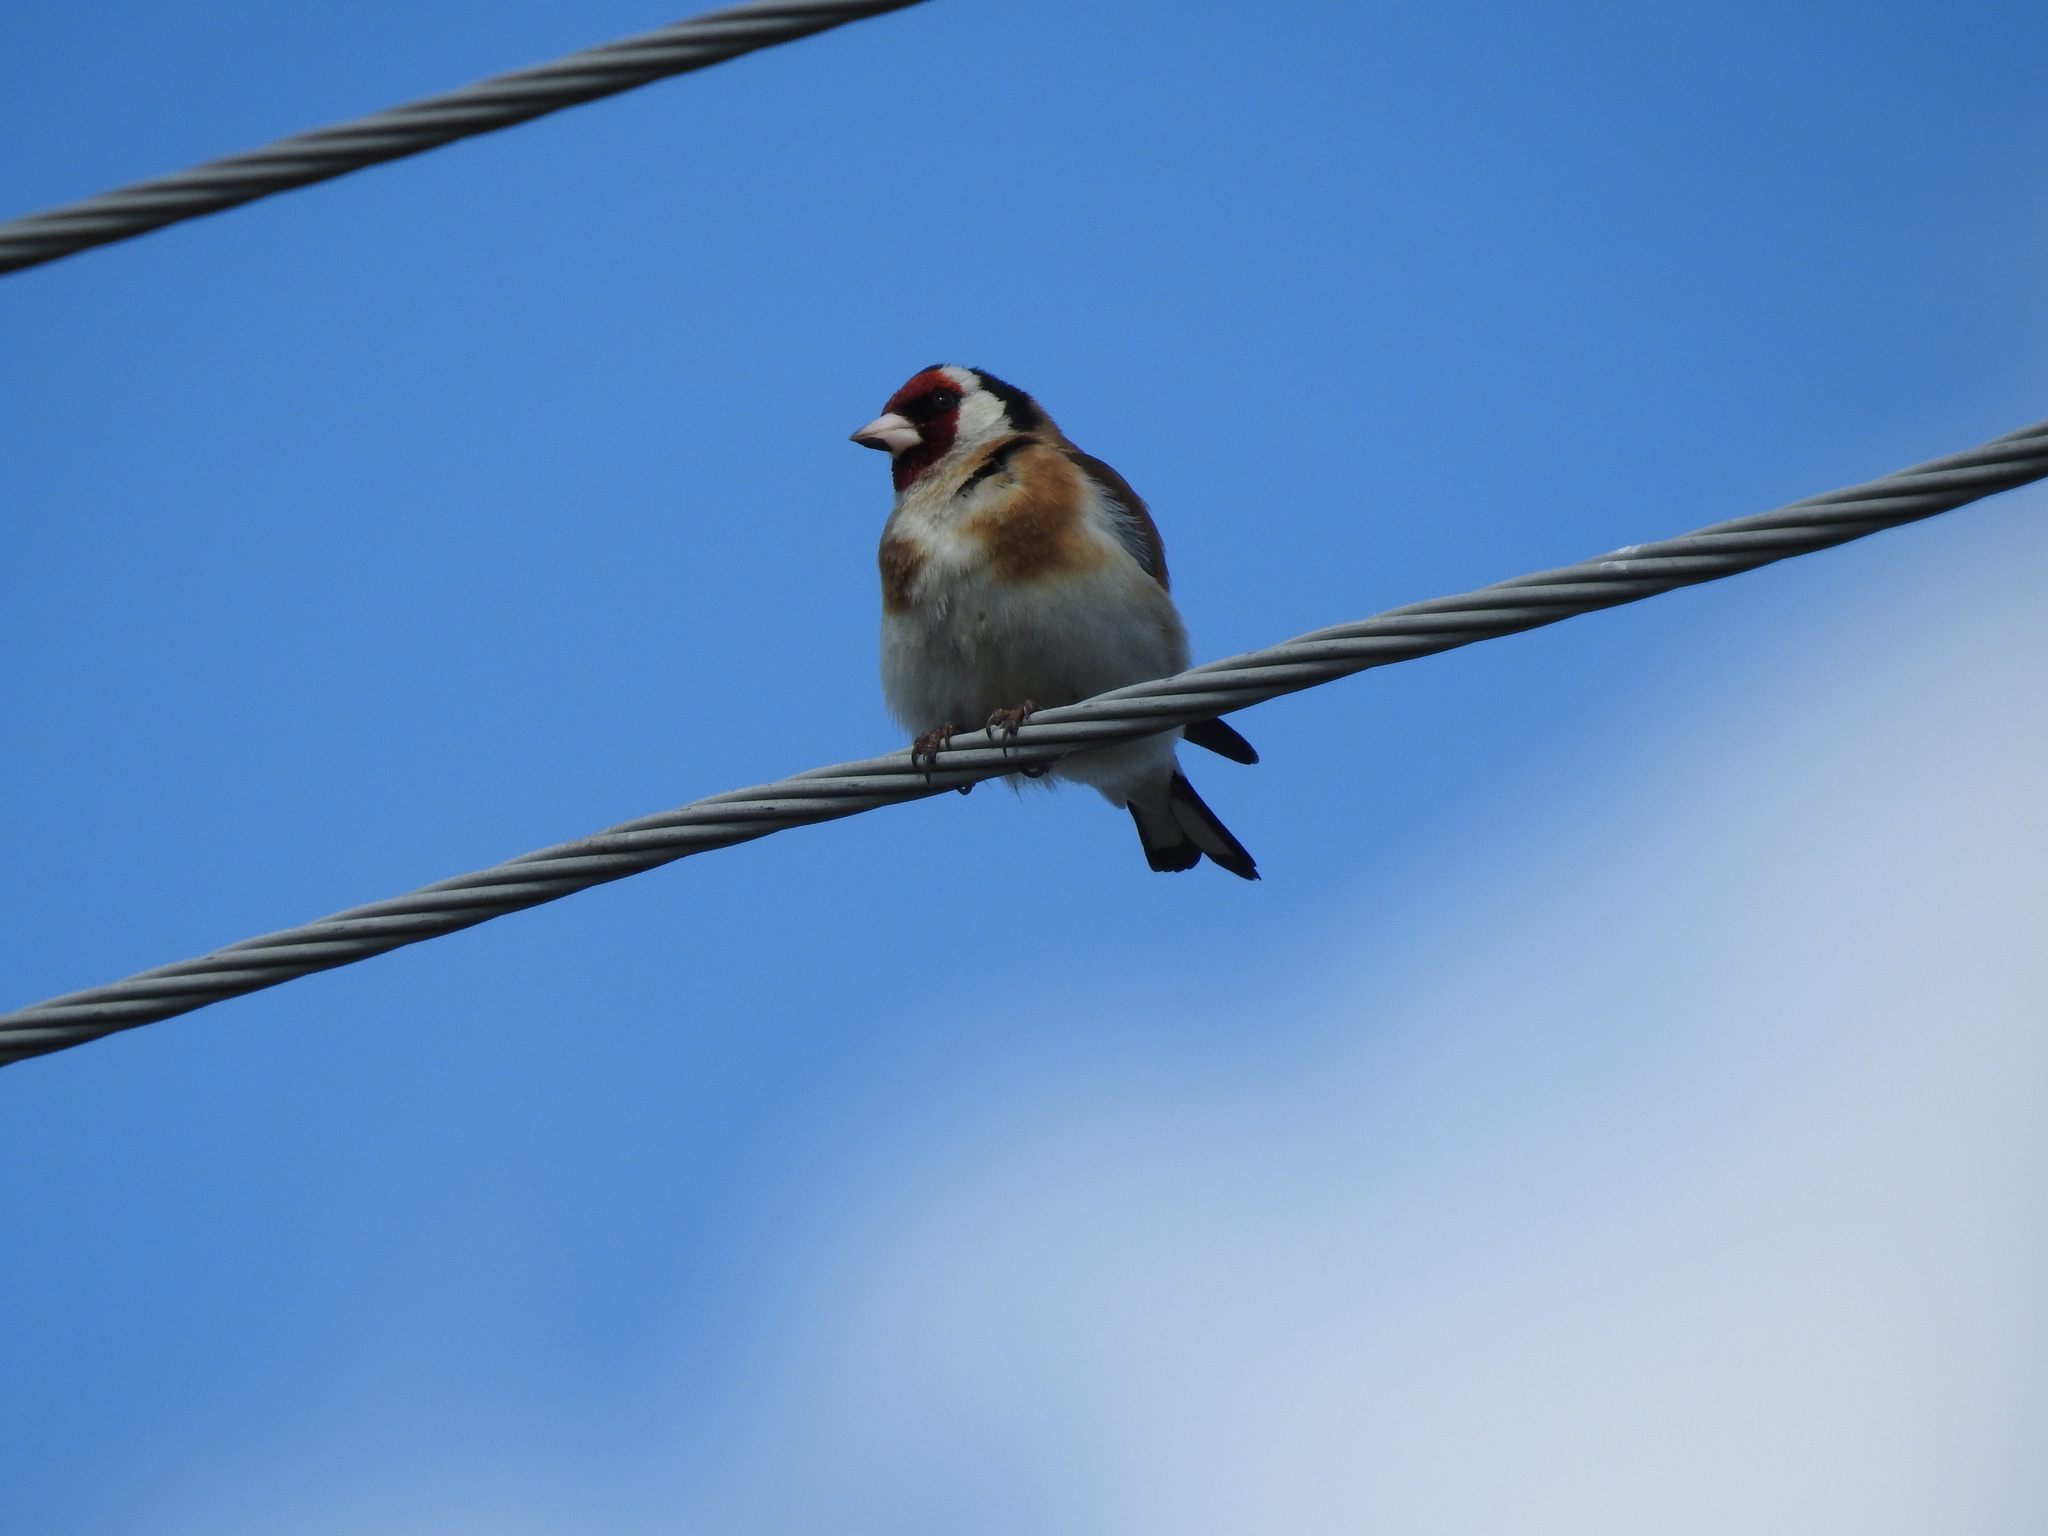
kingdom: Animalia
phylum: Chordata
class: Aves
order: Passeriformes
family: Fringillidae
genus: Carduelis
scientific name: Carduelis carduelis
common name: European goldfinch
